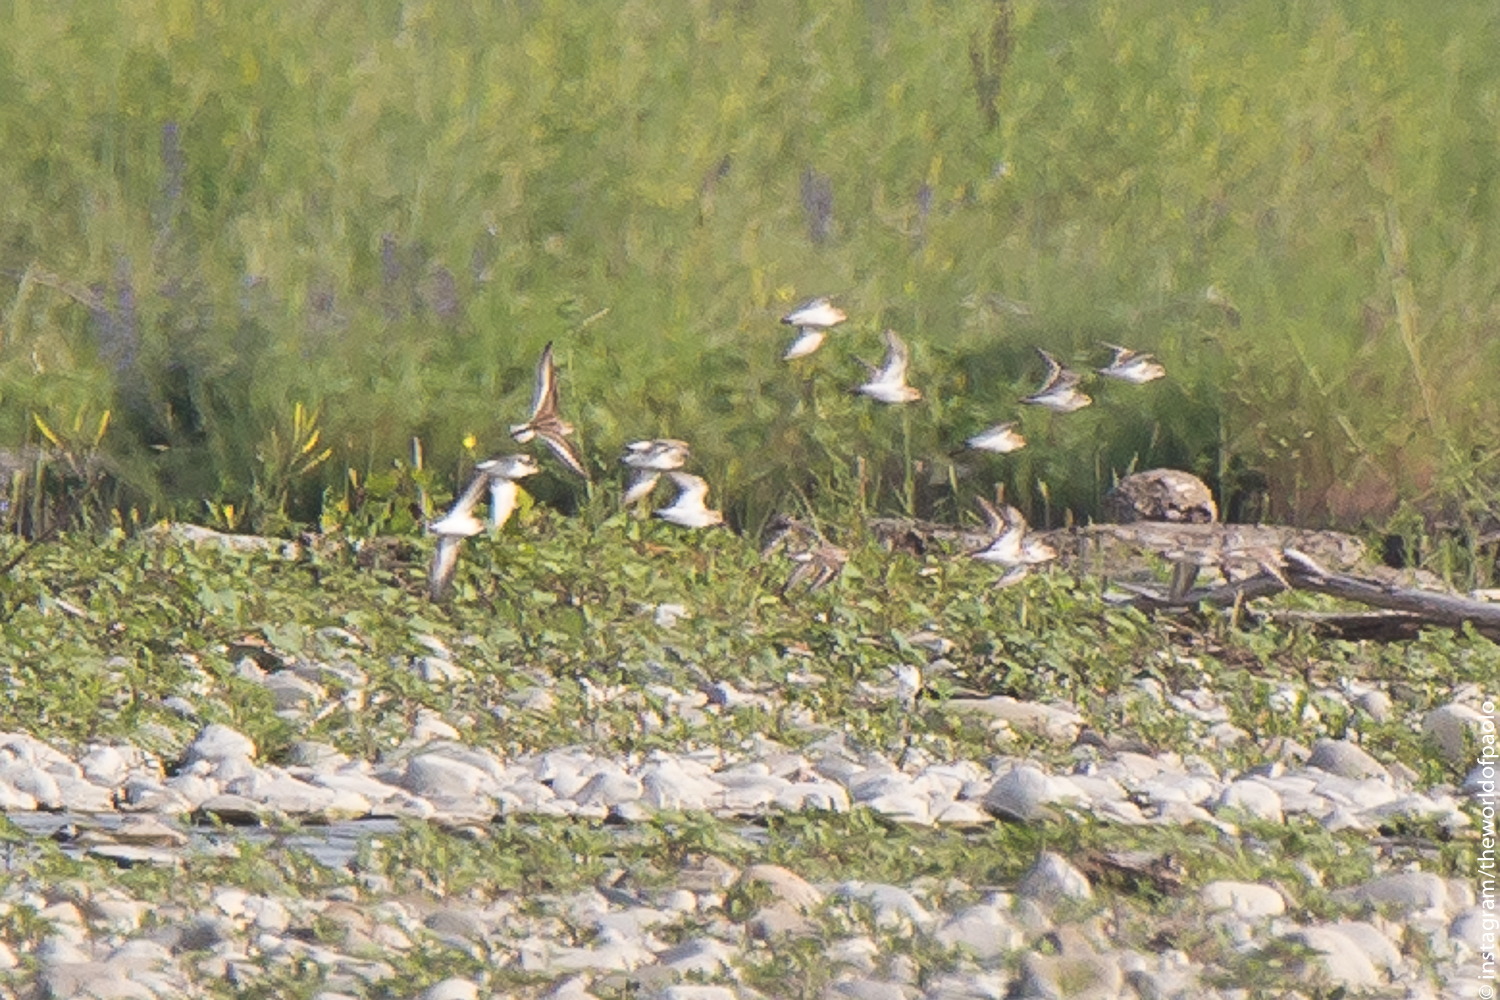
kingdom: Animalia
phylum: Chordata
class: Aves
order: Charadriiformes
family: Scolopacidae
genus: Calidris
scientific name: Calidris minuta
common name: Little stint
